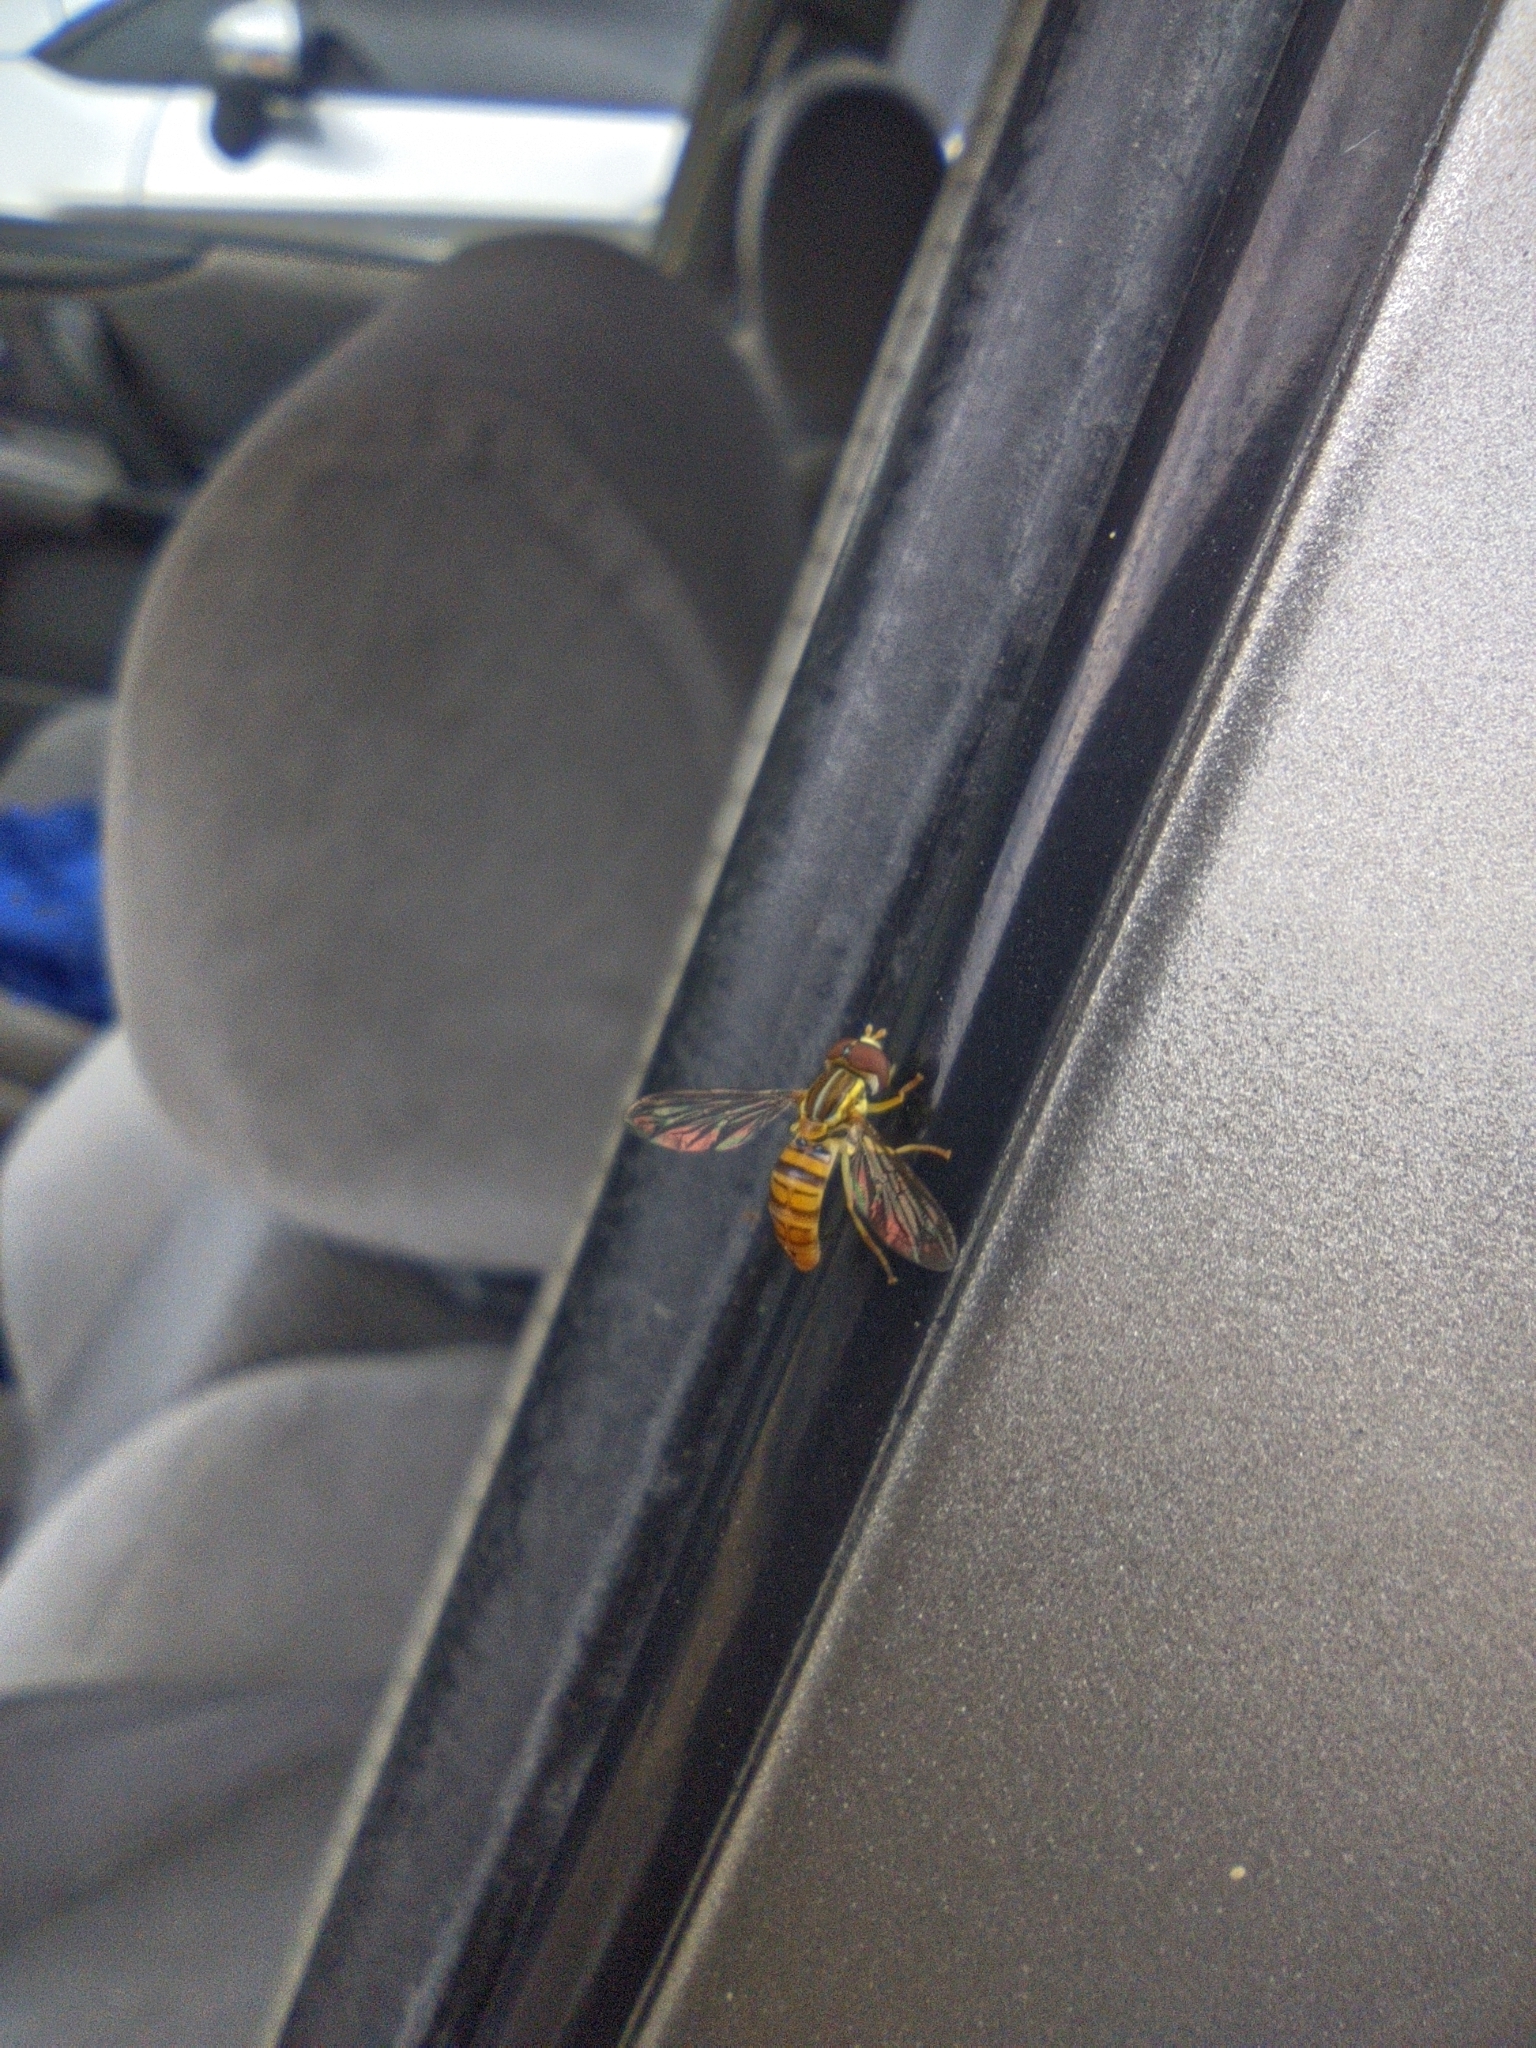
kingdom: Animalia
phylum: Arthropoda
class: Insecta
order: Diptera
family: Syrphidae
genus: Toxomerus
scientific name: Toxomerus politus
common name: Maize calligrapher
